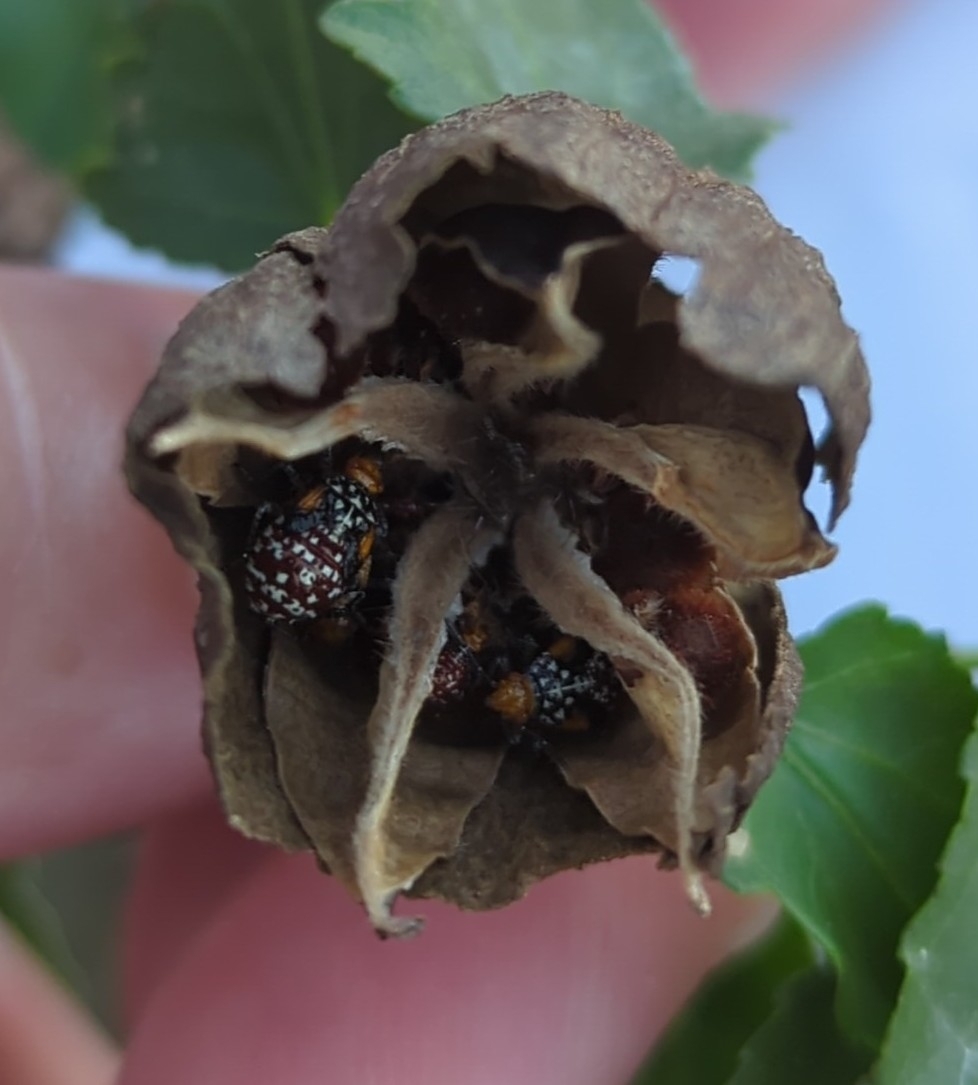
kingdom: Animalia
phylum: Arthropoda
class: Insecta
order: Hemiptera
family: Rhopalidae
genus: Niesthrea
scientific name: Niesthrea louisianica
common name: Scentless plant bug
